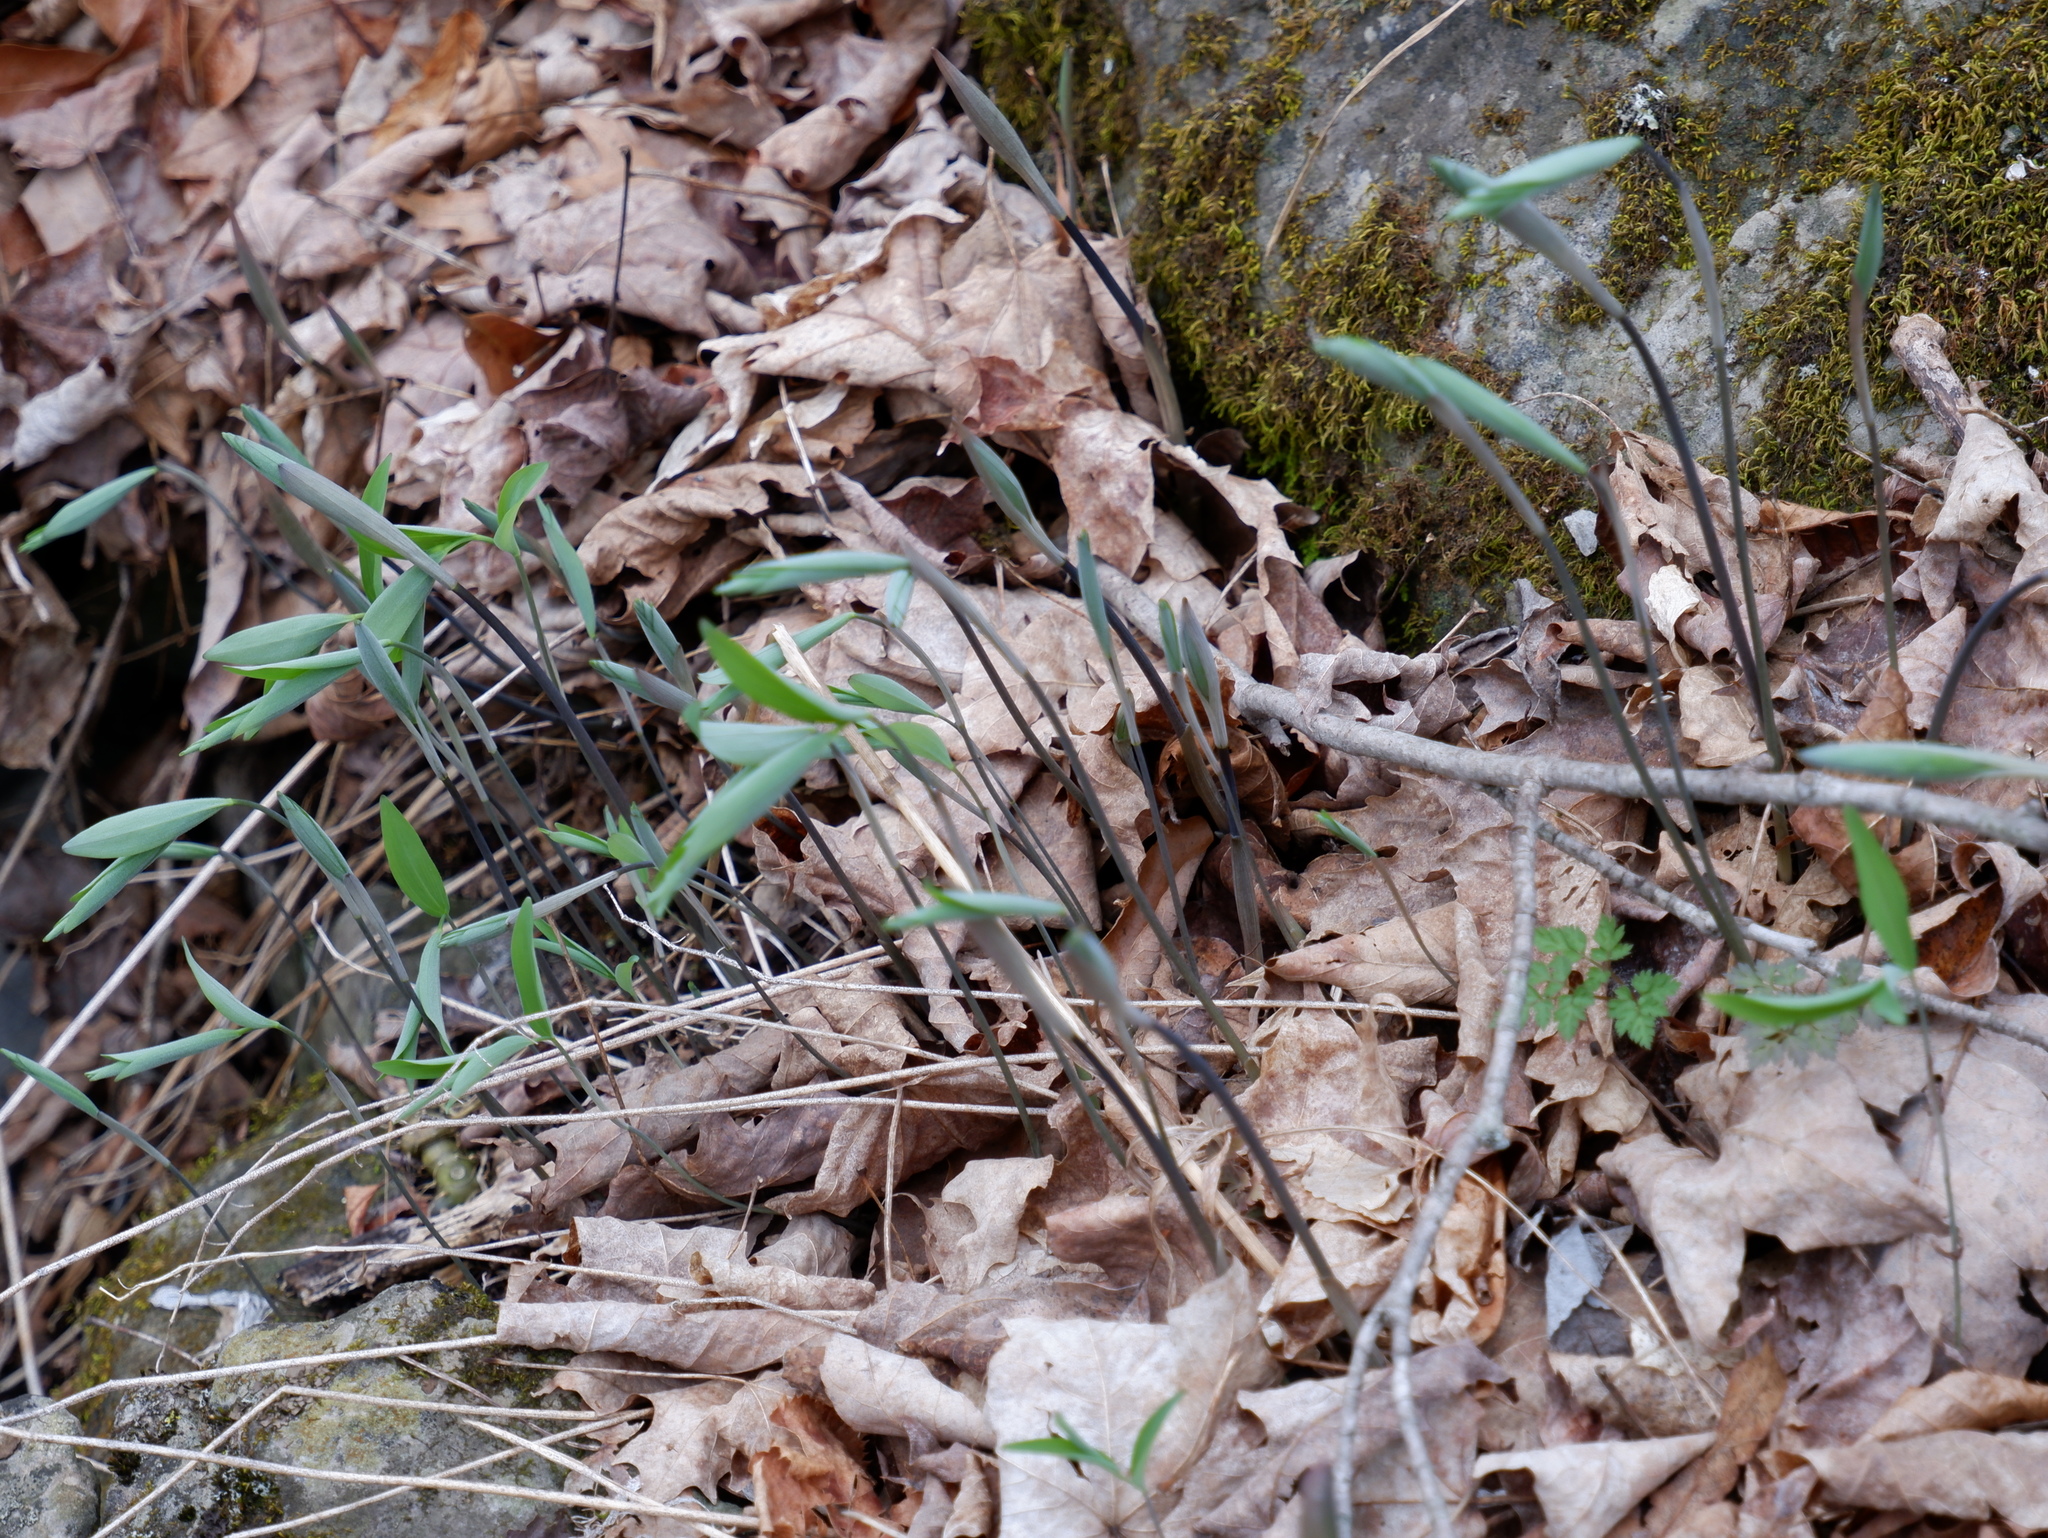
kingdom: Plantae
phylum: Tracheophyta
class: Liliopsida
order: Asparagales
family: Asparagaceae
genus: Polygonatum
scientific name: Polygonatum pubescens
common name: Downy solomon's seal
